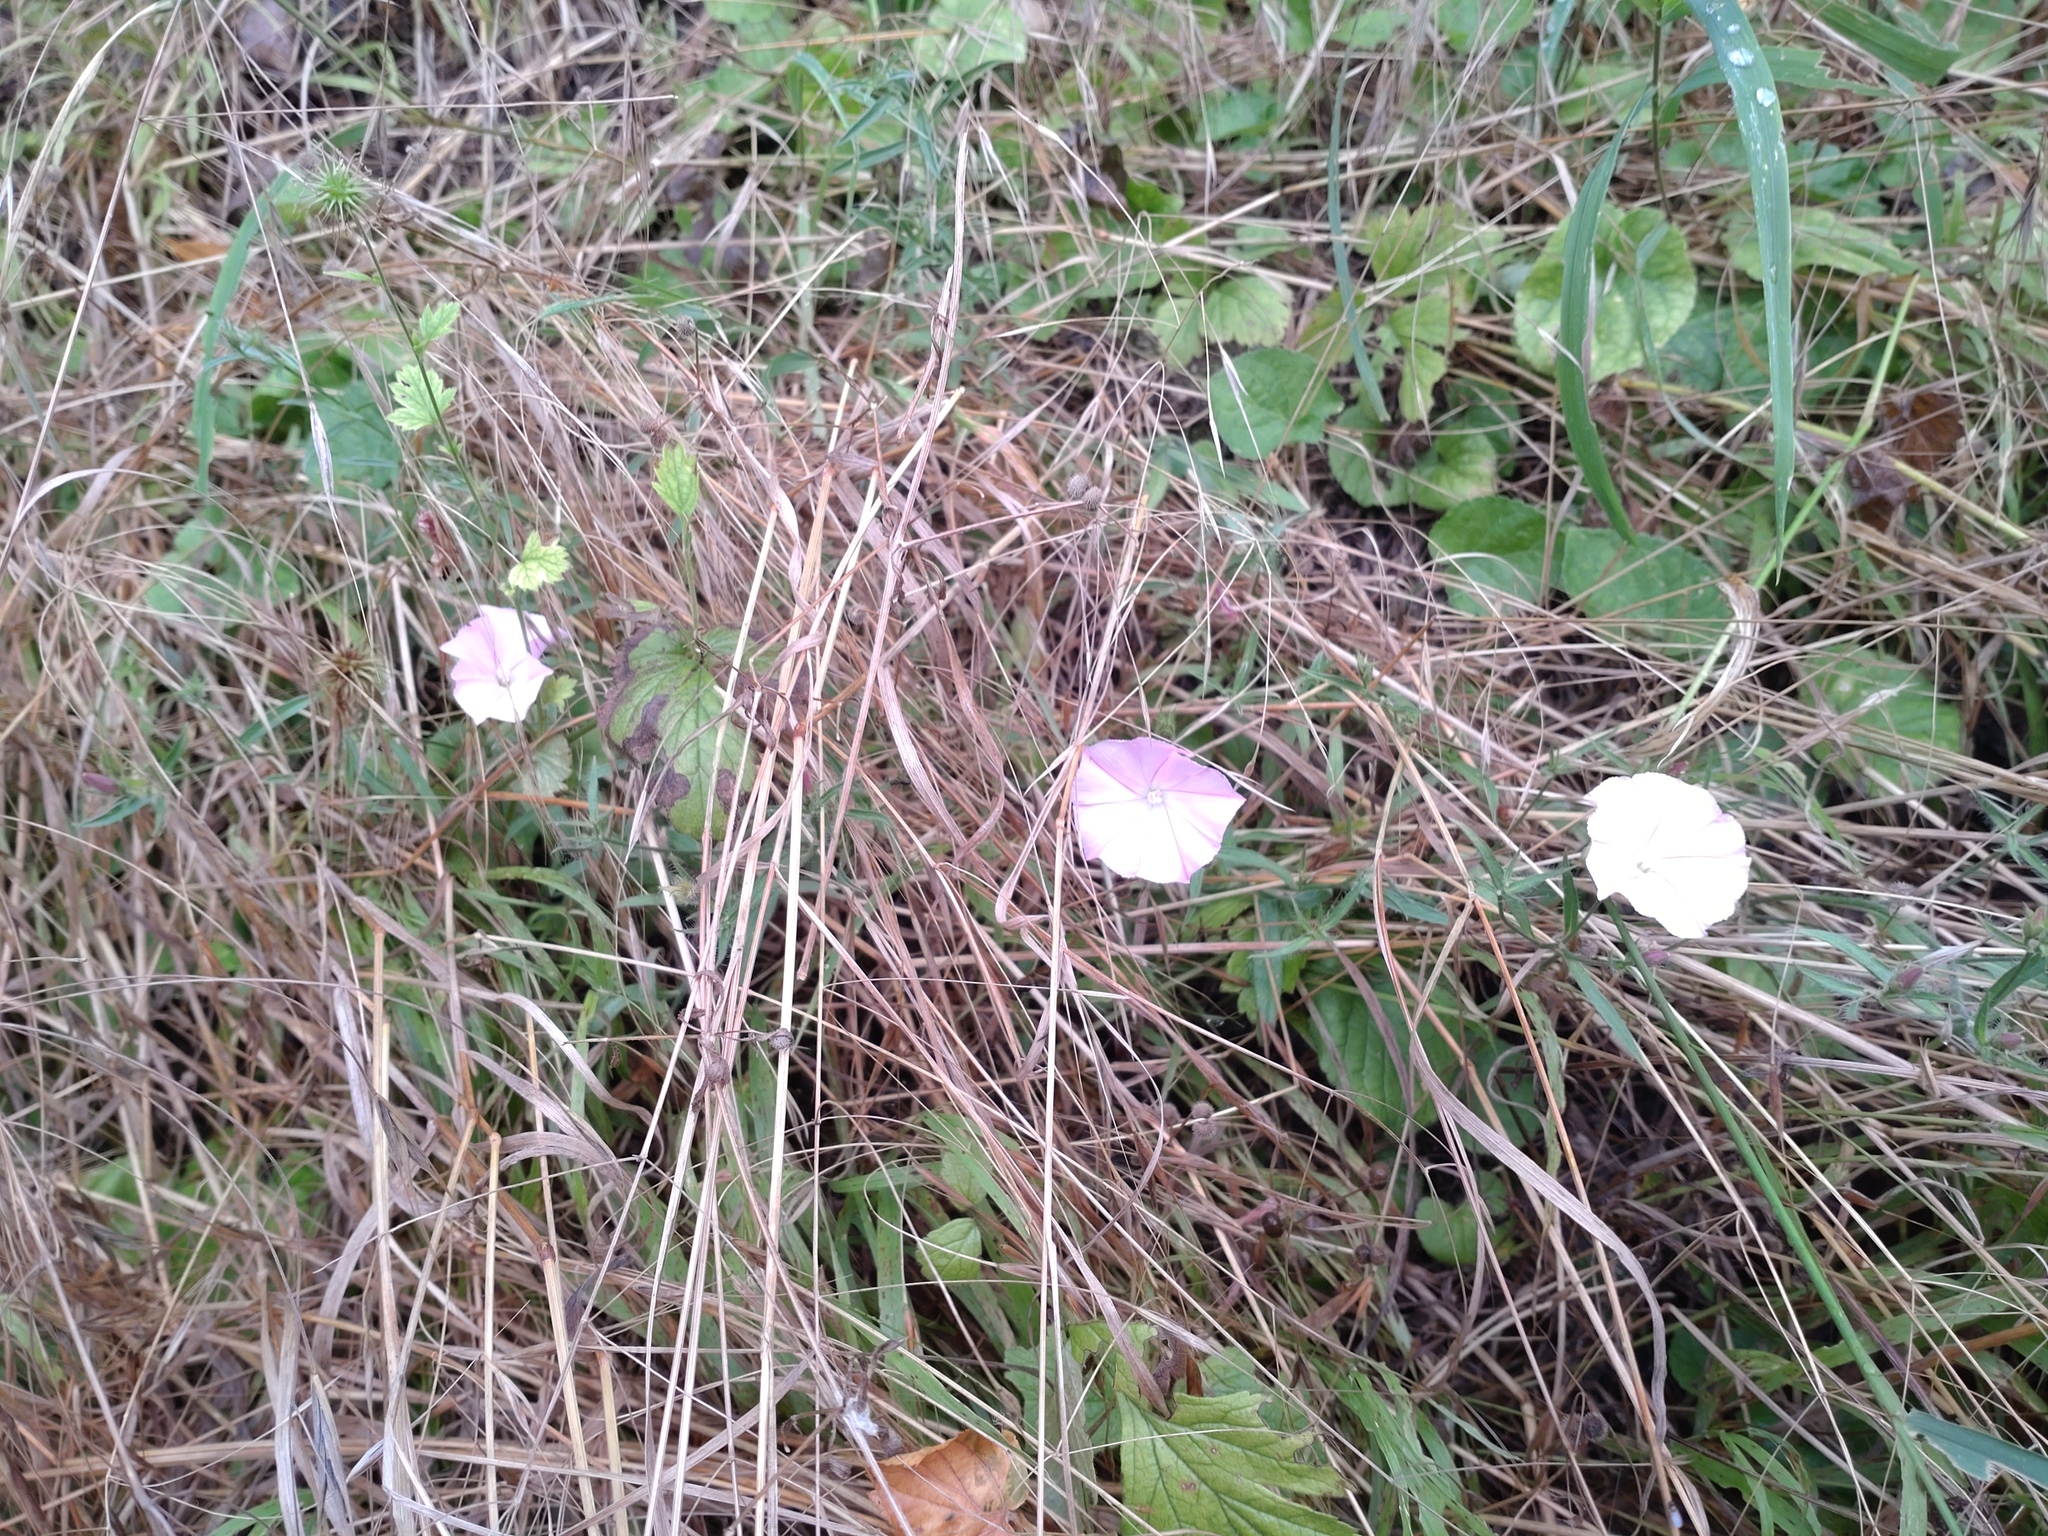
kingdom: Plantae
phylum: Tracheophyta
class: Magnoliopsida
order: Solanales
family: Convolvulaceae
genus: Convolvulus
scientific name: Convolvulus cantabrica
